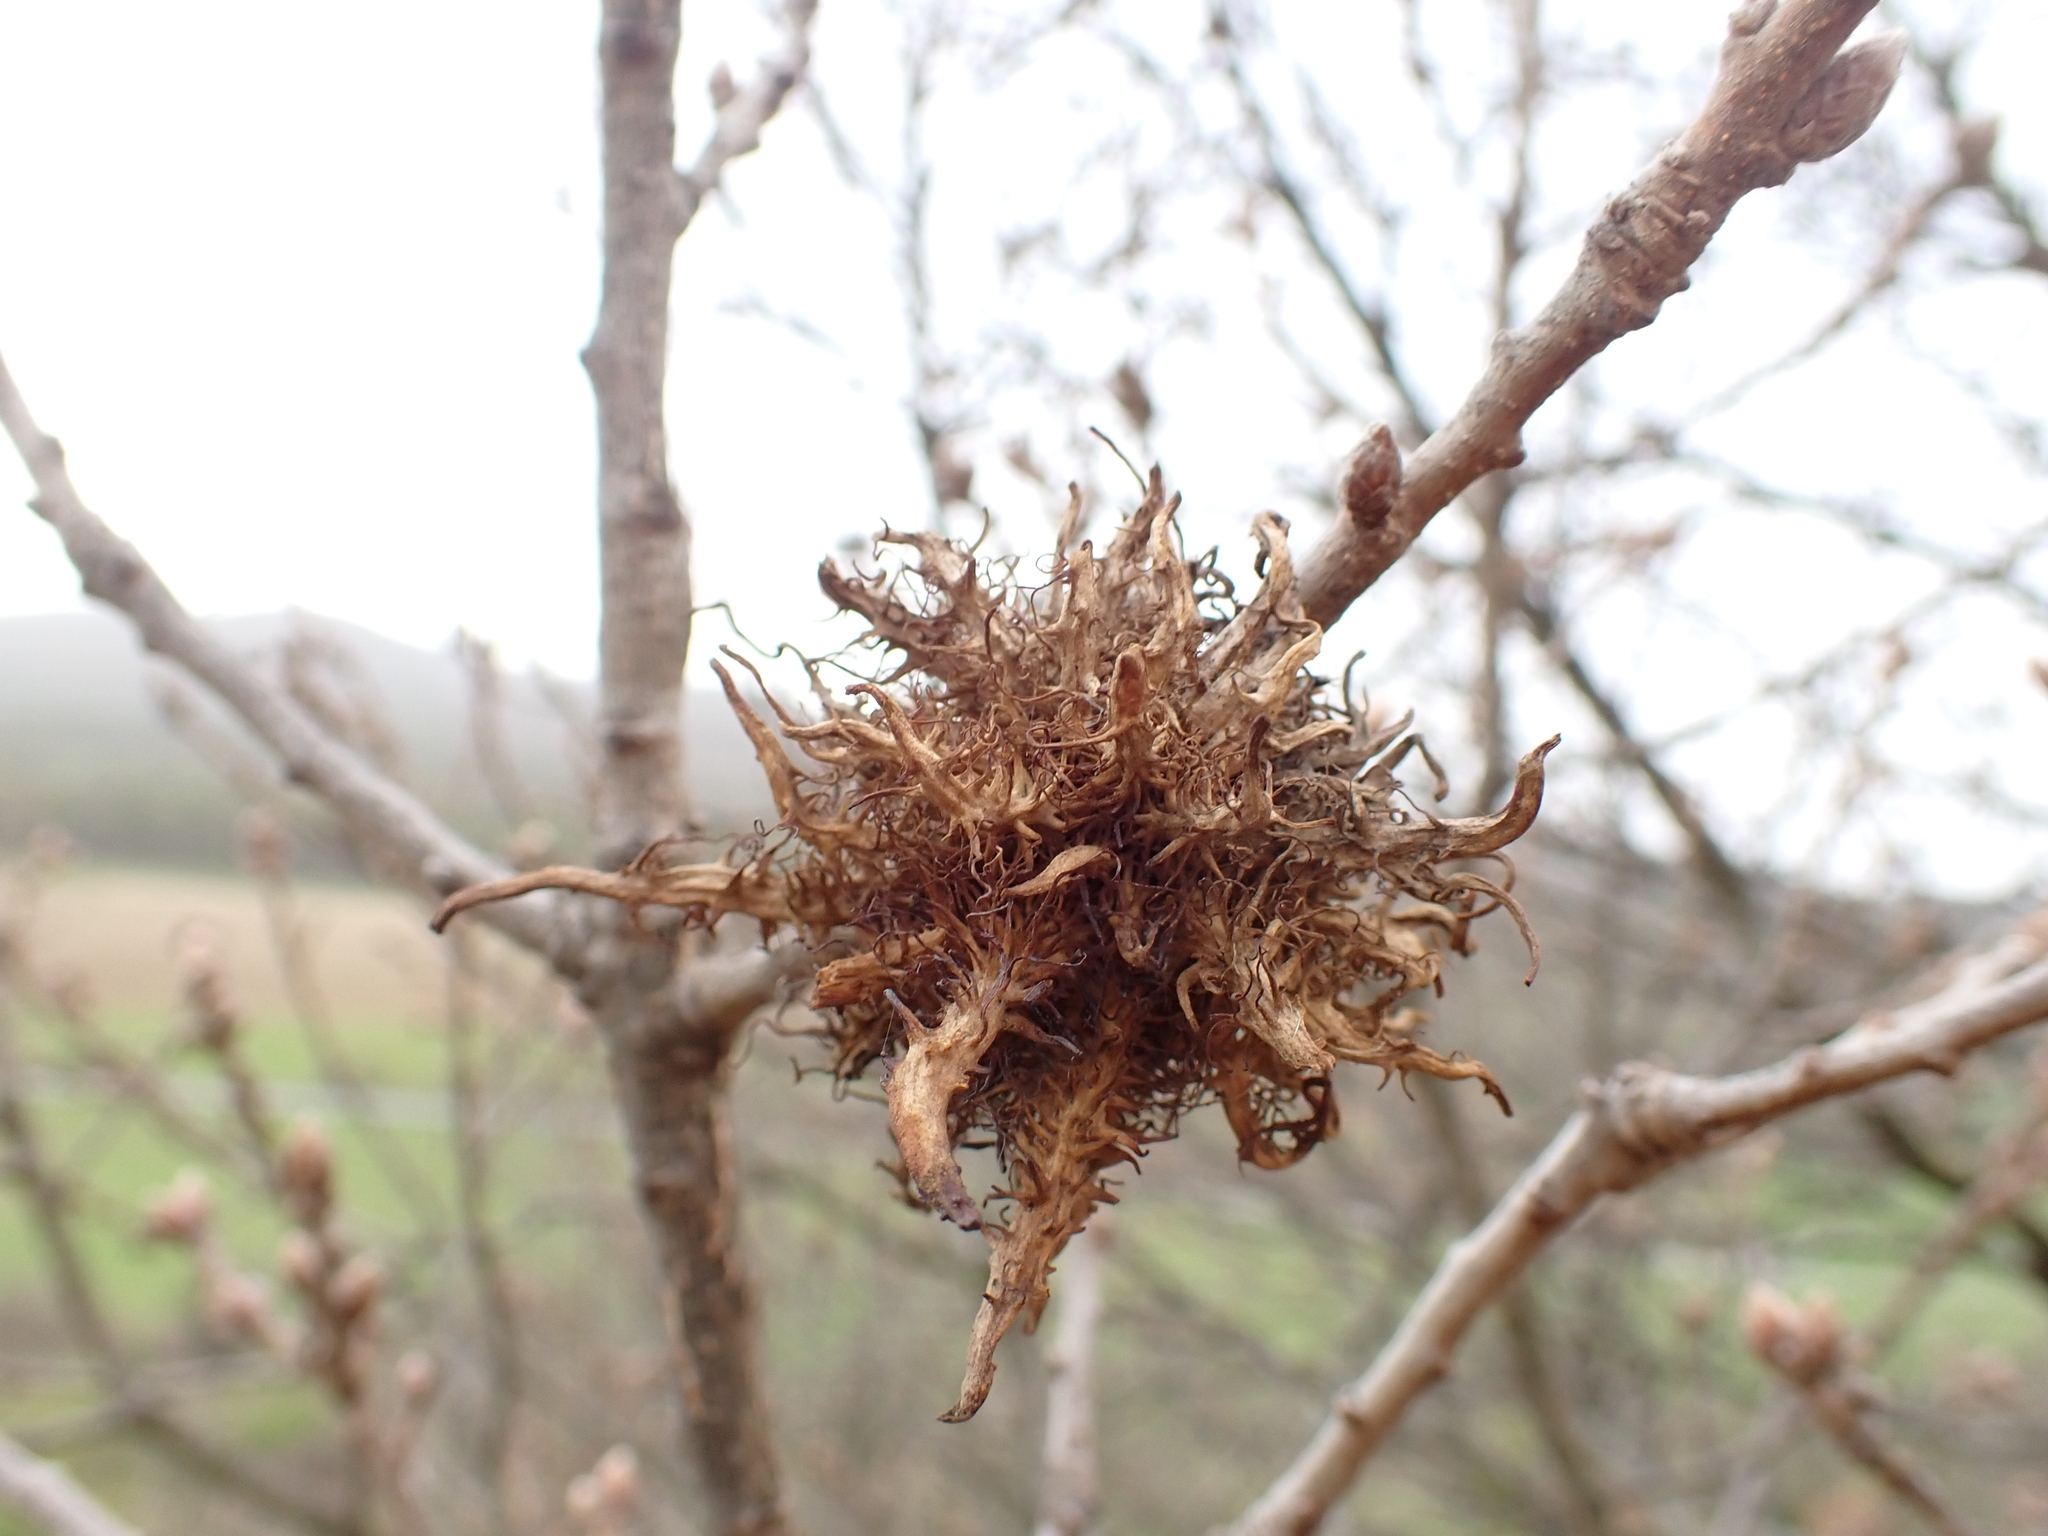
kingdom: Animalia
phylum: Arthropoda
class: Insecta
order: Hymenoptera
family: Cynipidae
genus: Andricus
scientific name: Andricus caputmedusae
